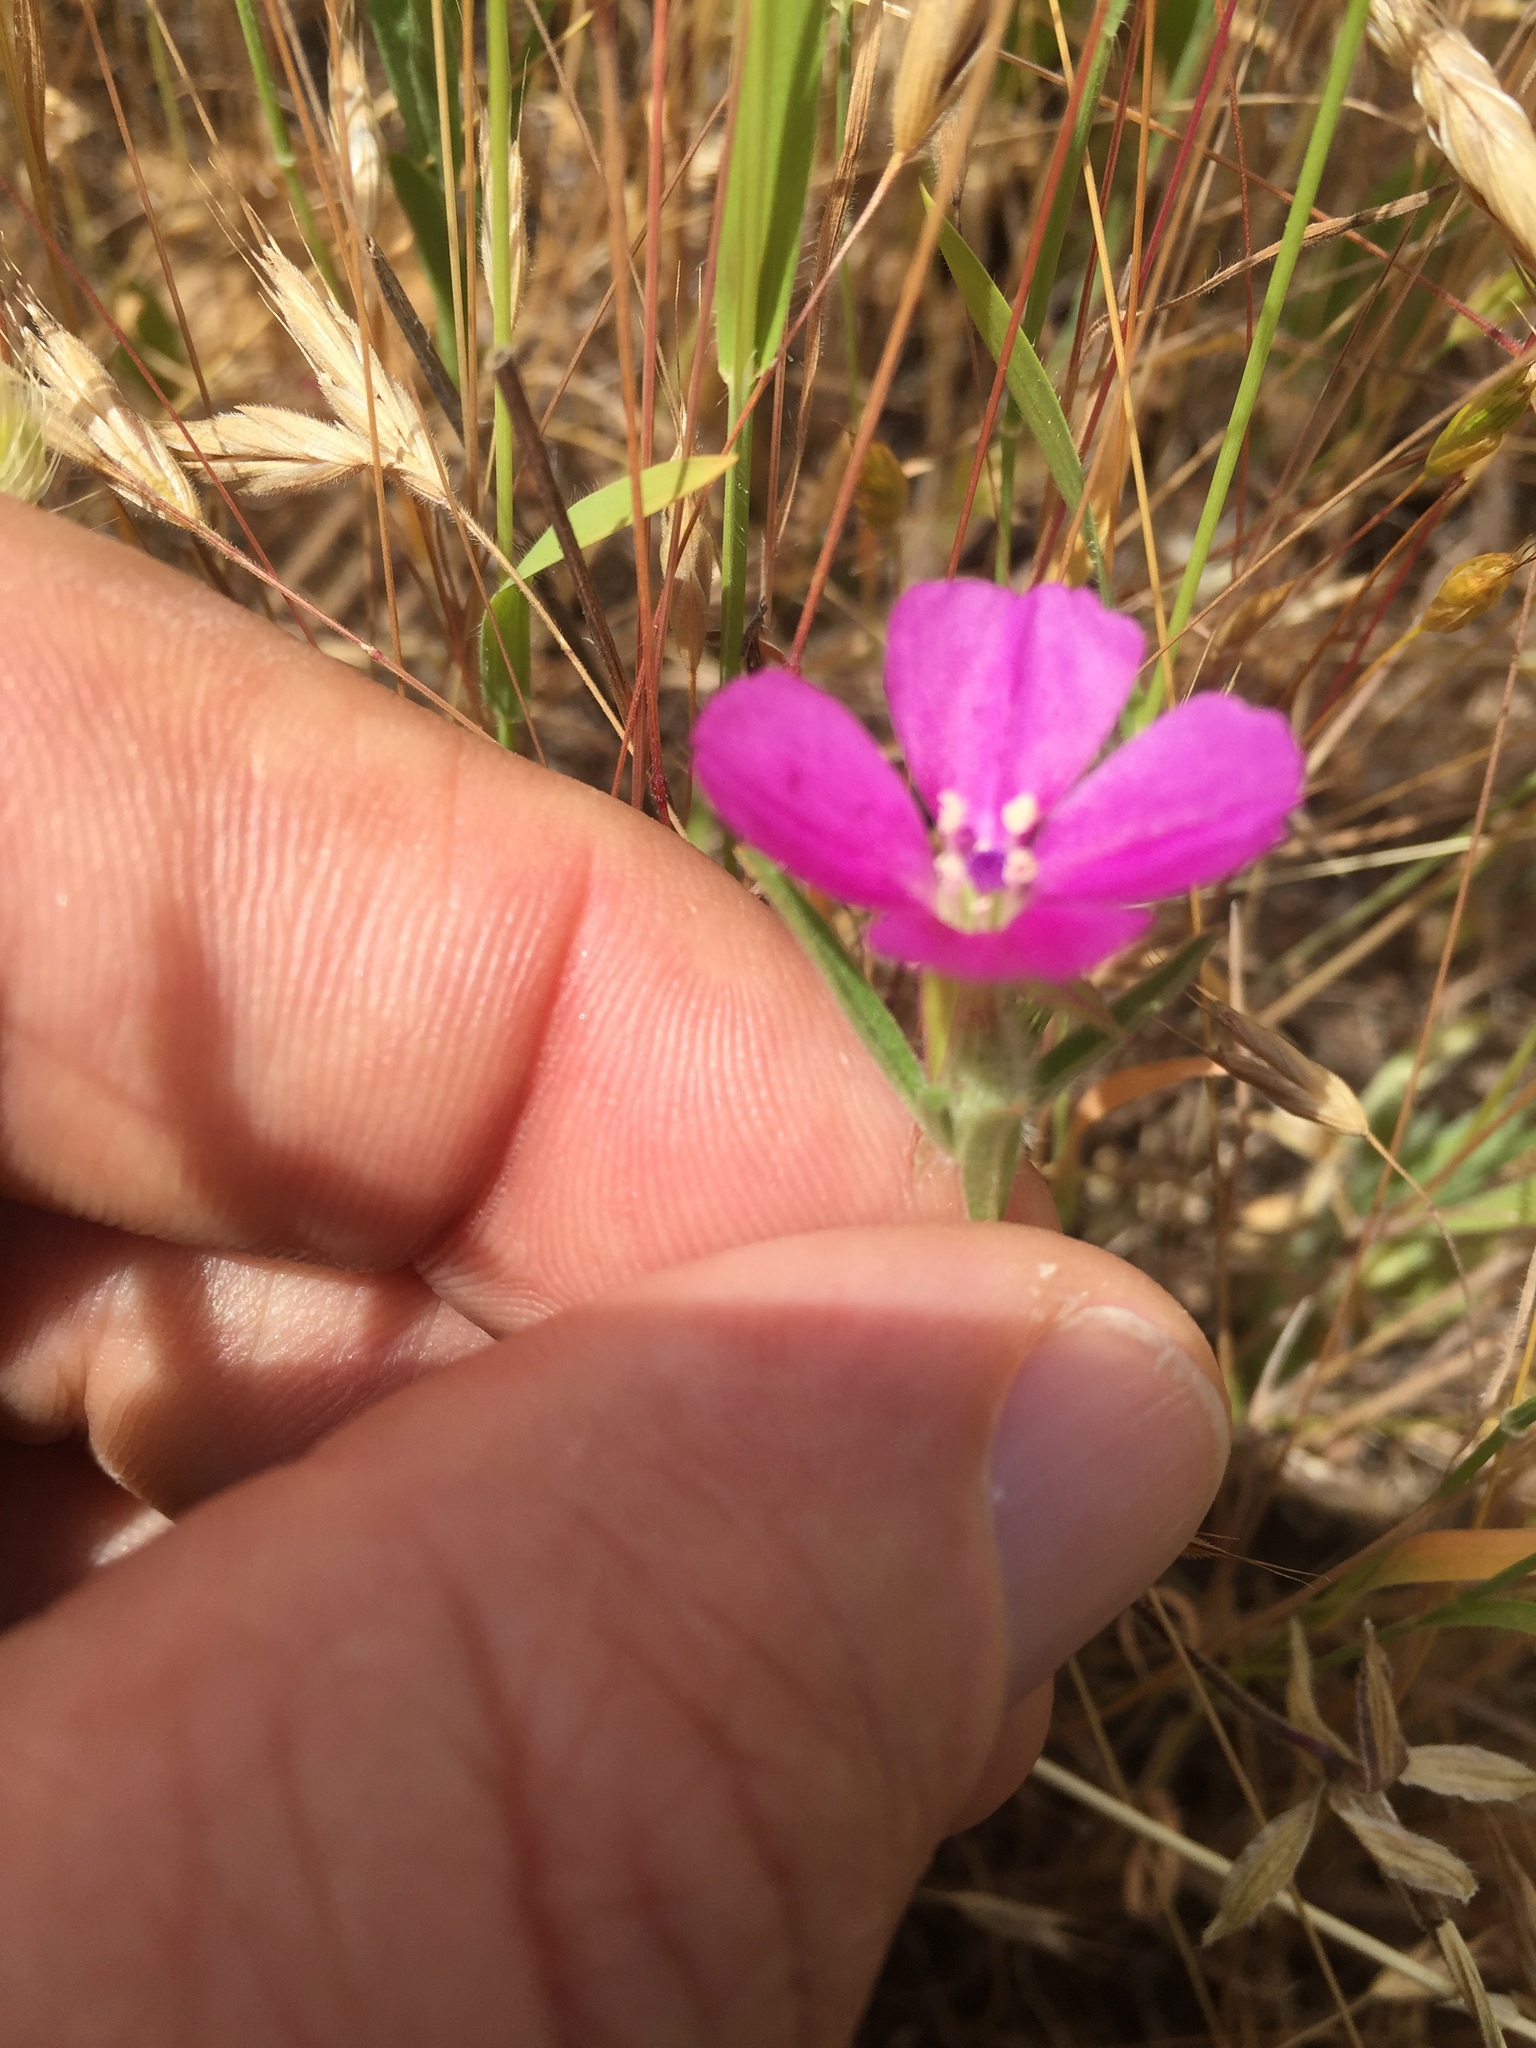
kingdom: Plantae
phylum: Tracheophyta
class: Magnoliopsida
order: Myrtales
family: Onagraceae
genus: Clarkia
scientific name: Clarkia purpurea
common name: Purple clarkia
